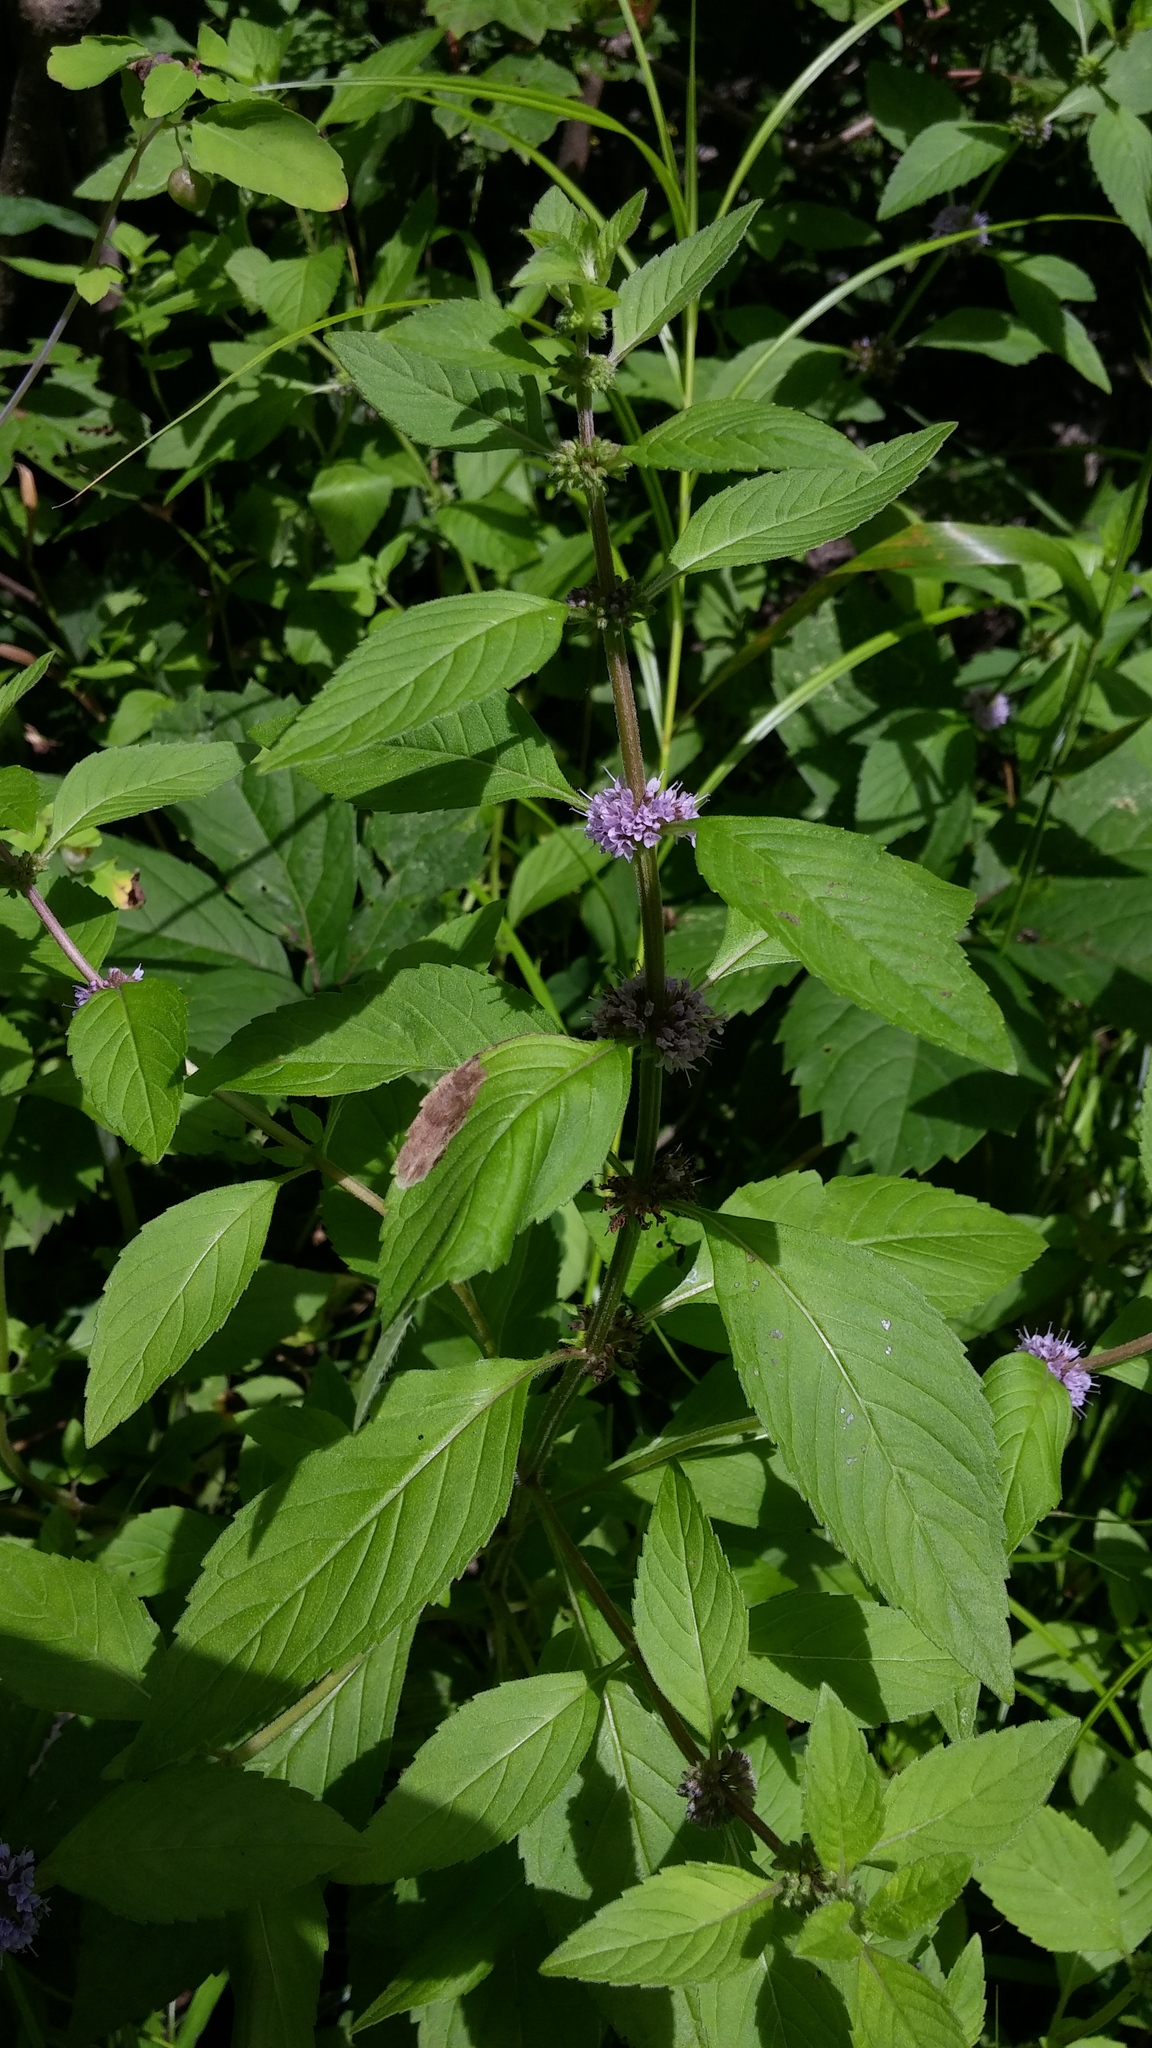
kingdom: Plantae
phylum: Tracheophyta
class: Magnoliopsida
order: Lamiales
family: Lamiaceae
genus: Mentha
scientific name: Mentha canadensis
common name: American corn mint
